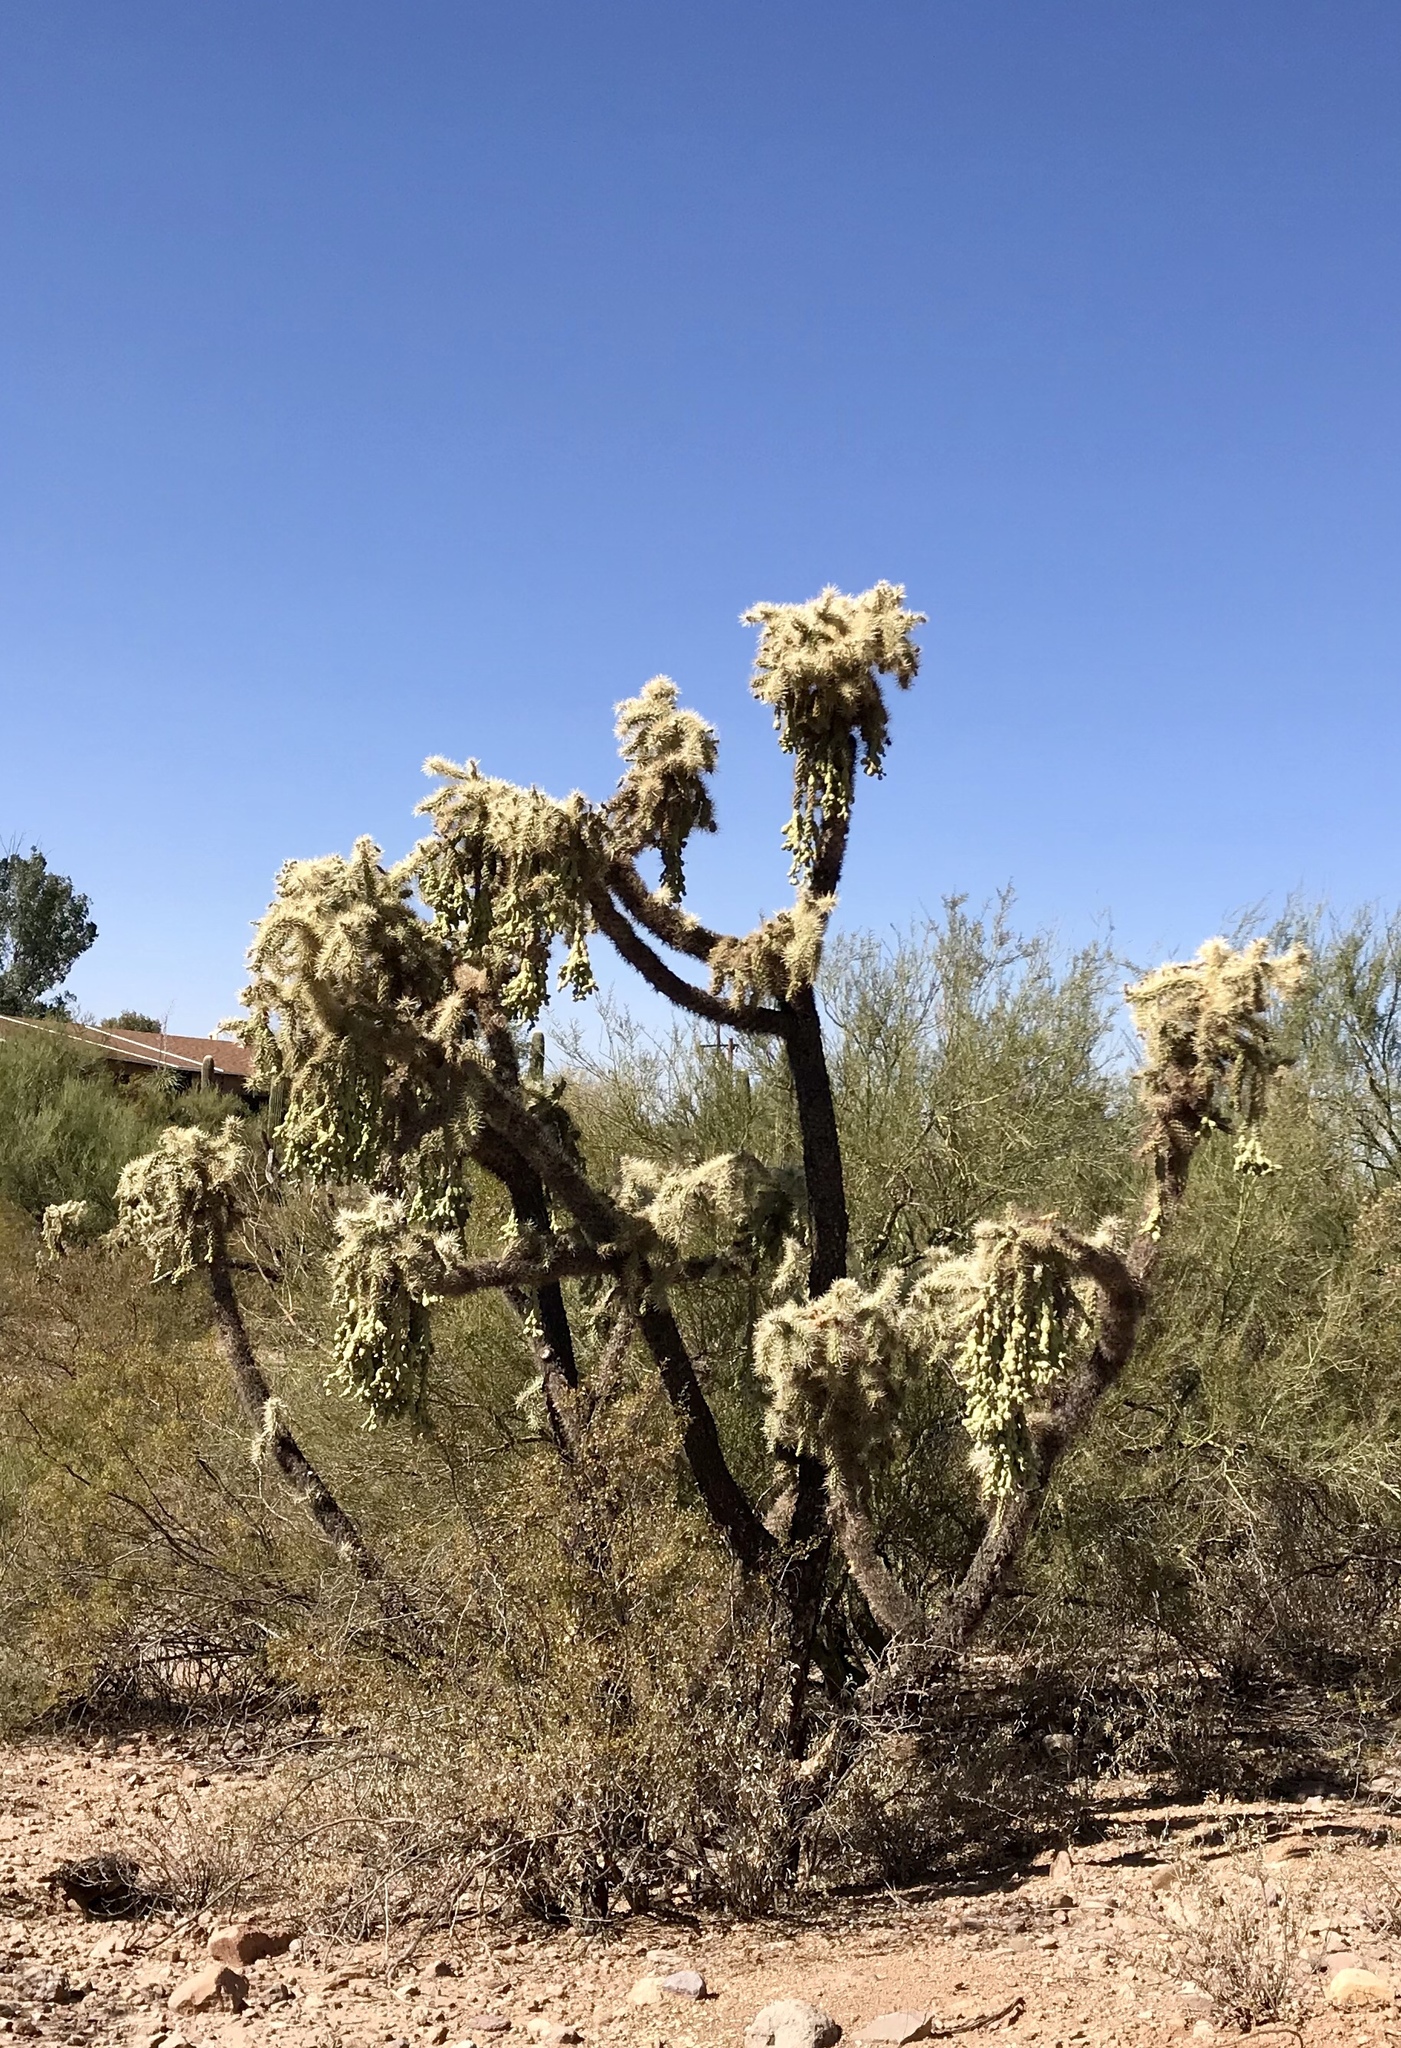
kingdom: Plantae
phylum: Tracheophyta
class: Magnoliopsida
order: Caryophyllales
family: Cactaceae
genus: Cylindropuntia
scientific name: Cylindropuntia fulgida
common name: Jumping cholla
